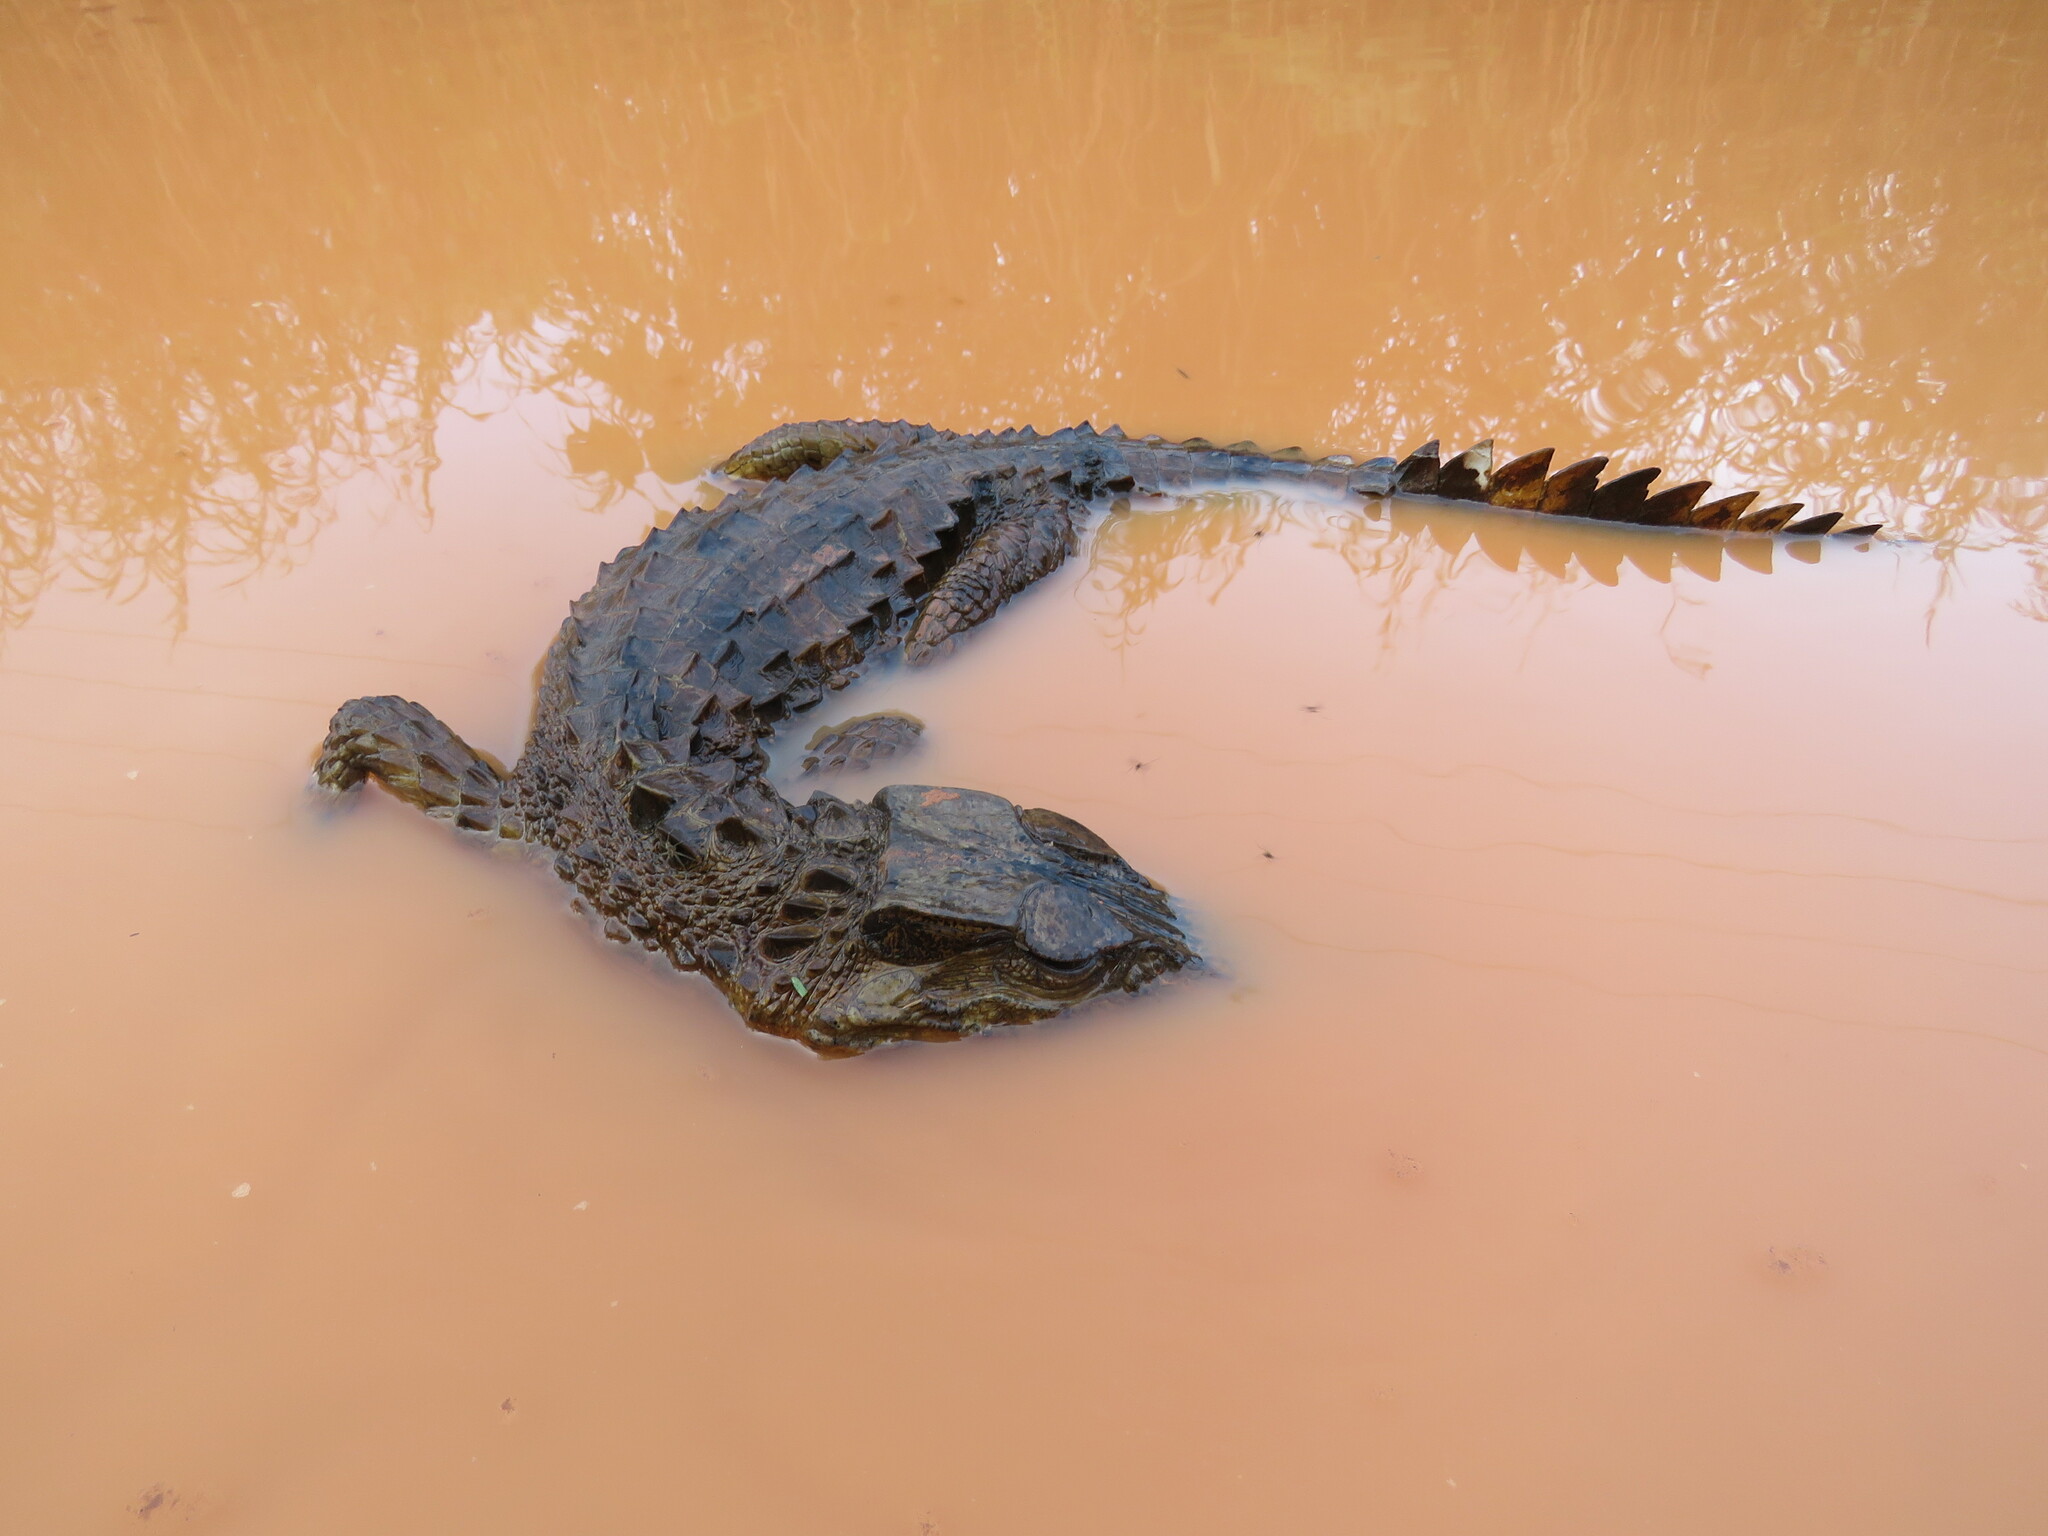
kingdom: Animalia
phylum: Chordata
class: Crocodylia
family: Alligatoridae
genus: Paleosuchus
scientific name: Paleosuchus trigonatus
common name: Schneider's smooth-fronted caiman
